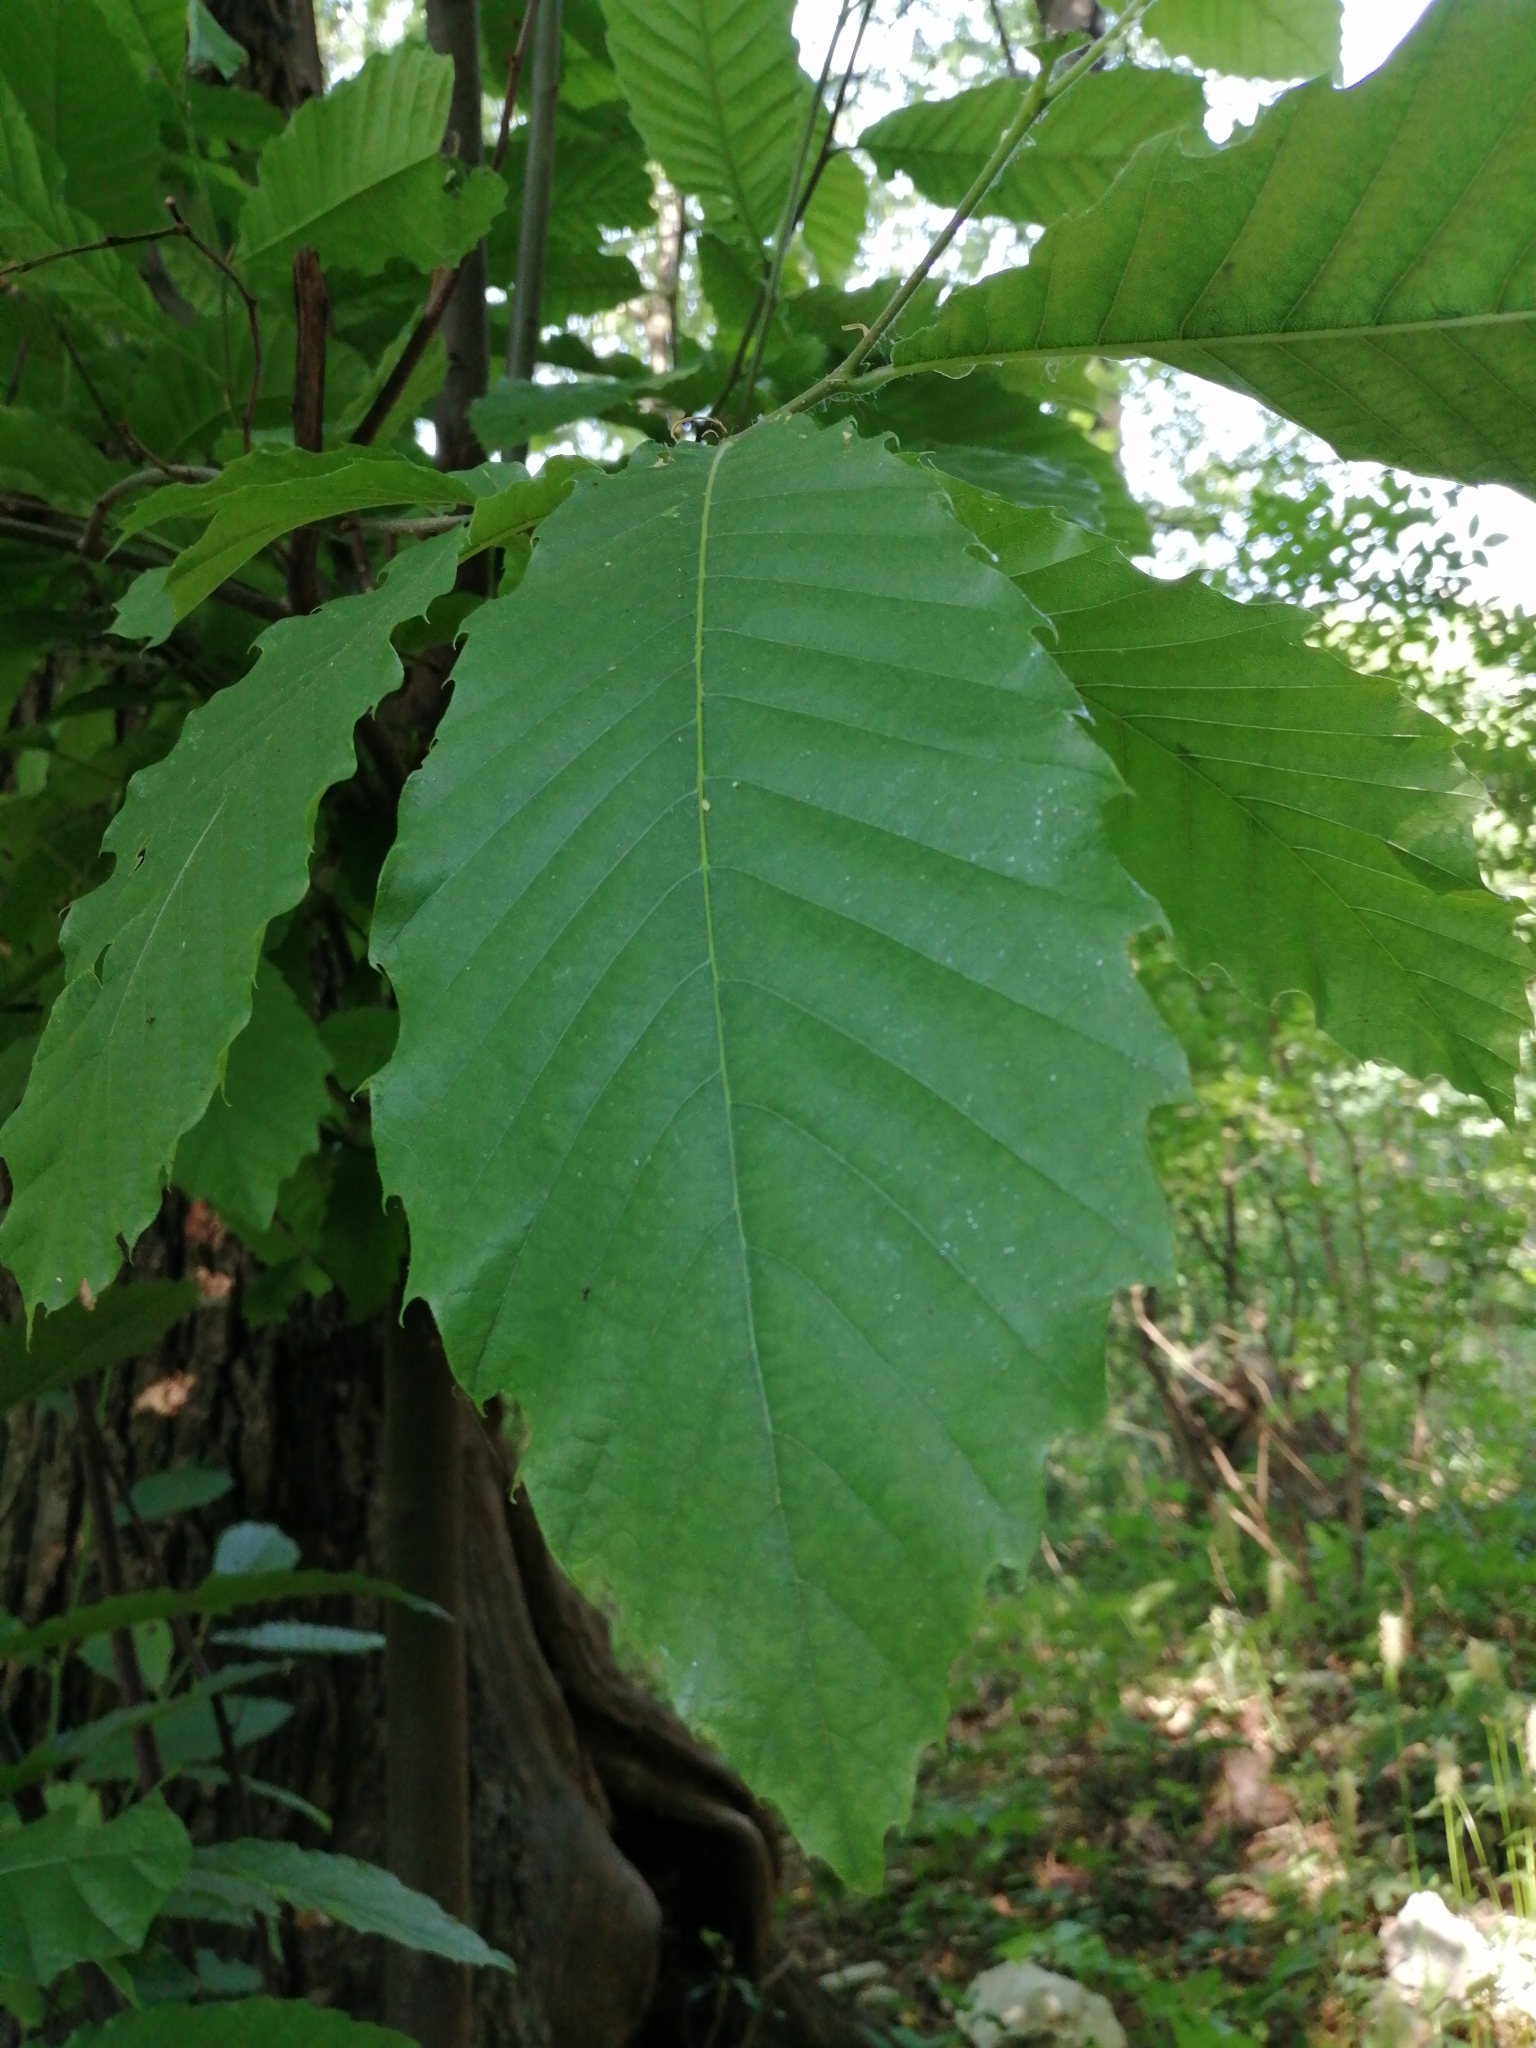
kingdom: Plantae
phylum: Tracheophyta
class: Magnoliopsida
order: Fagales
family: Fagaceae
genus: Castanea
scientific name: Castanea sativa
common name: Sweet chestnut
